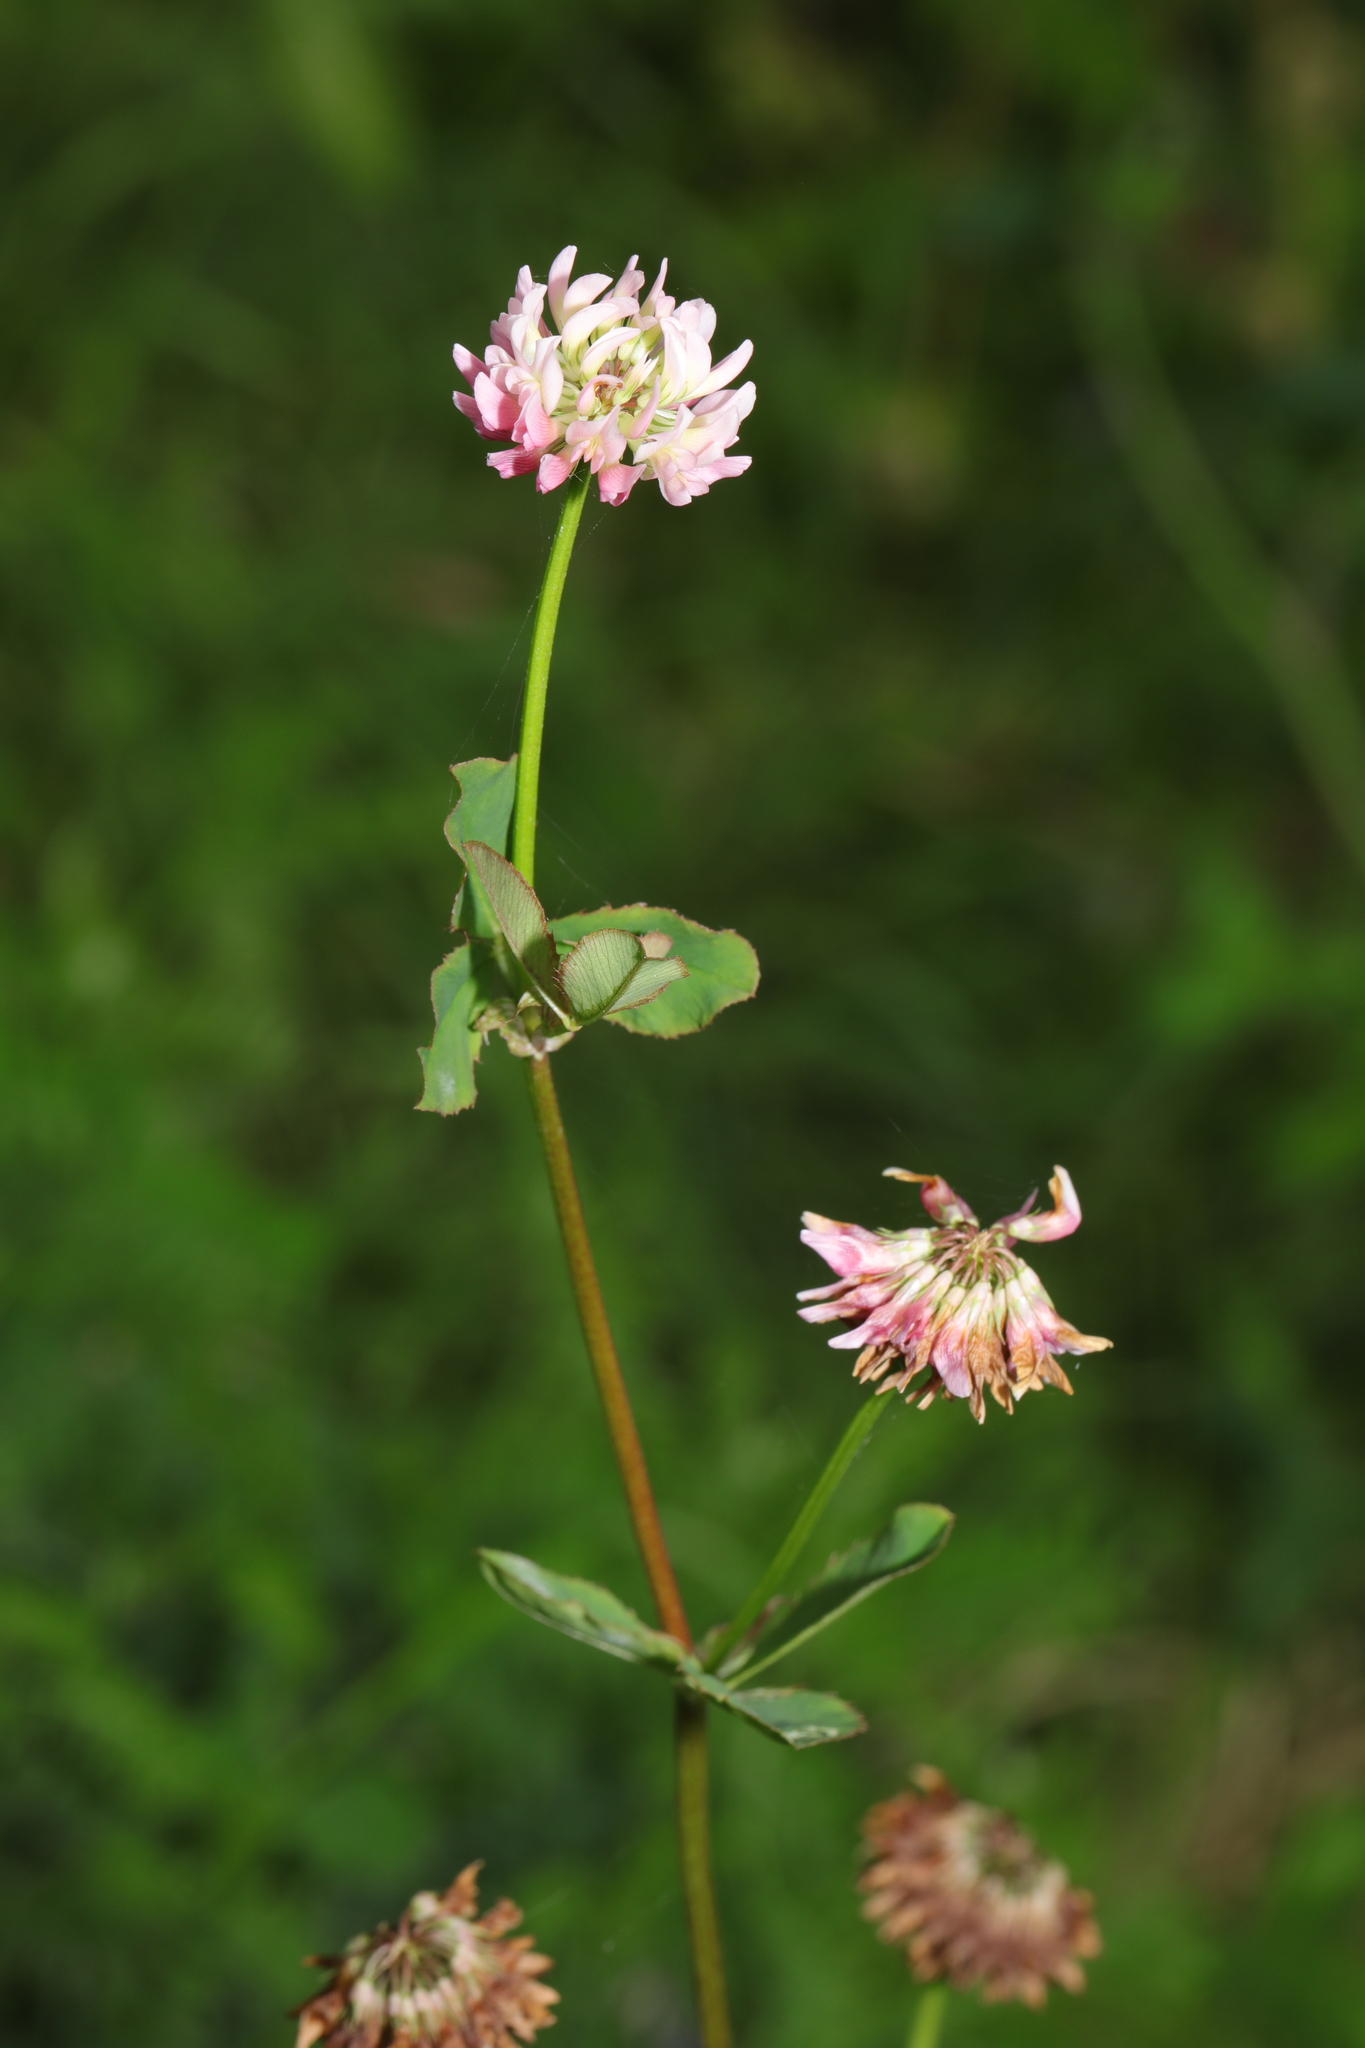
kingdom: Plantae
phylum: Tracheophyta
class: Magnoliopsida
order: Fabales
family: Fabaceae
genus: Trifolium
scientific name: Trifolium hybridum
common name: Alsike clover
